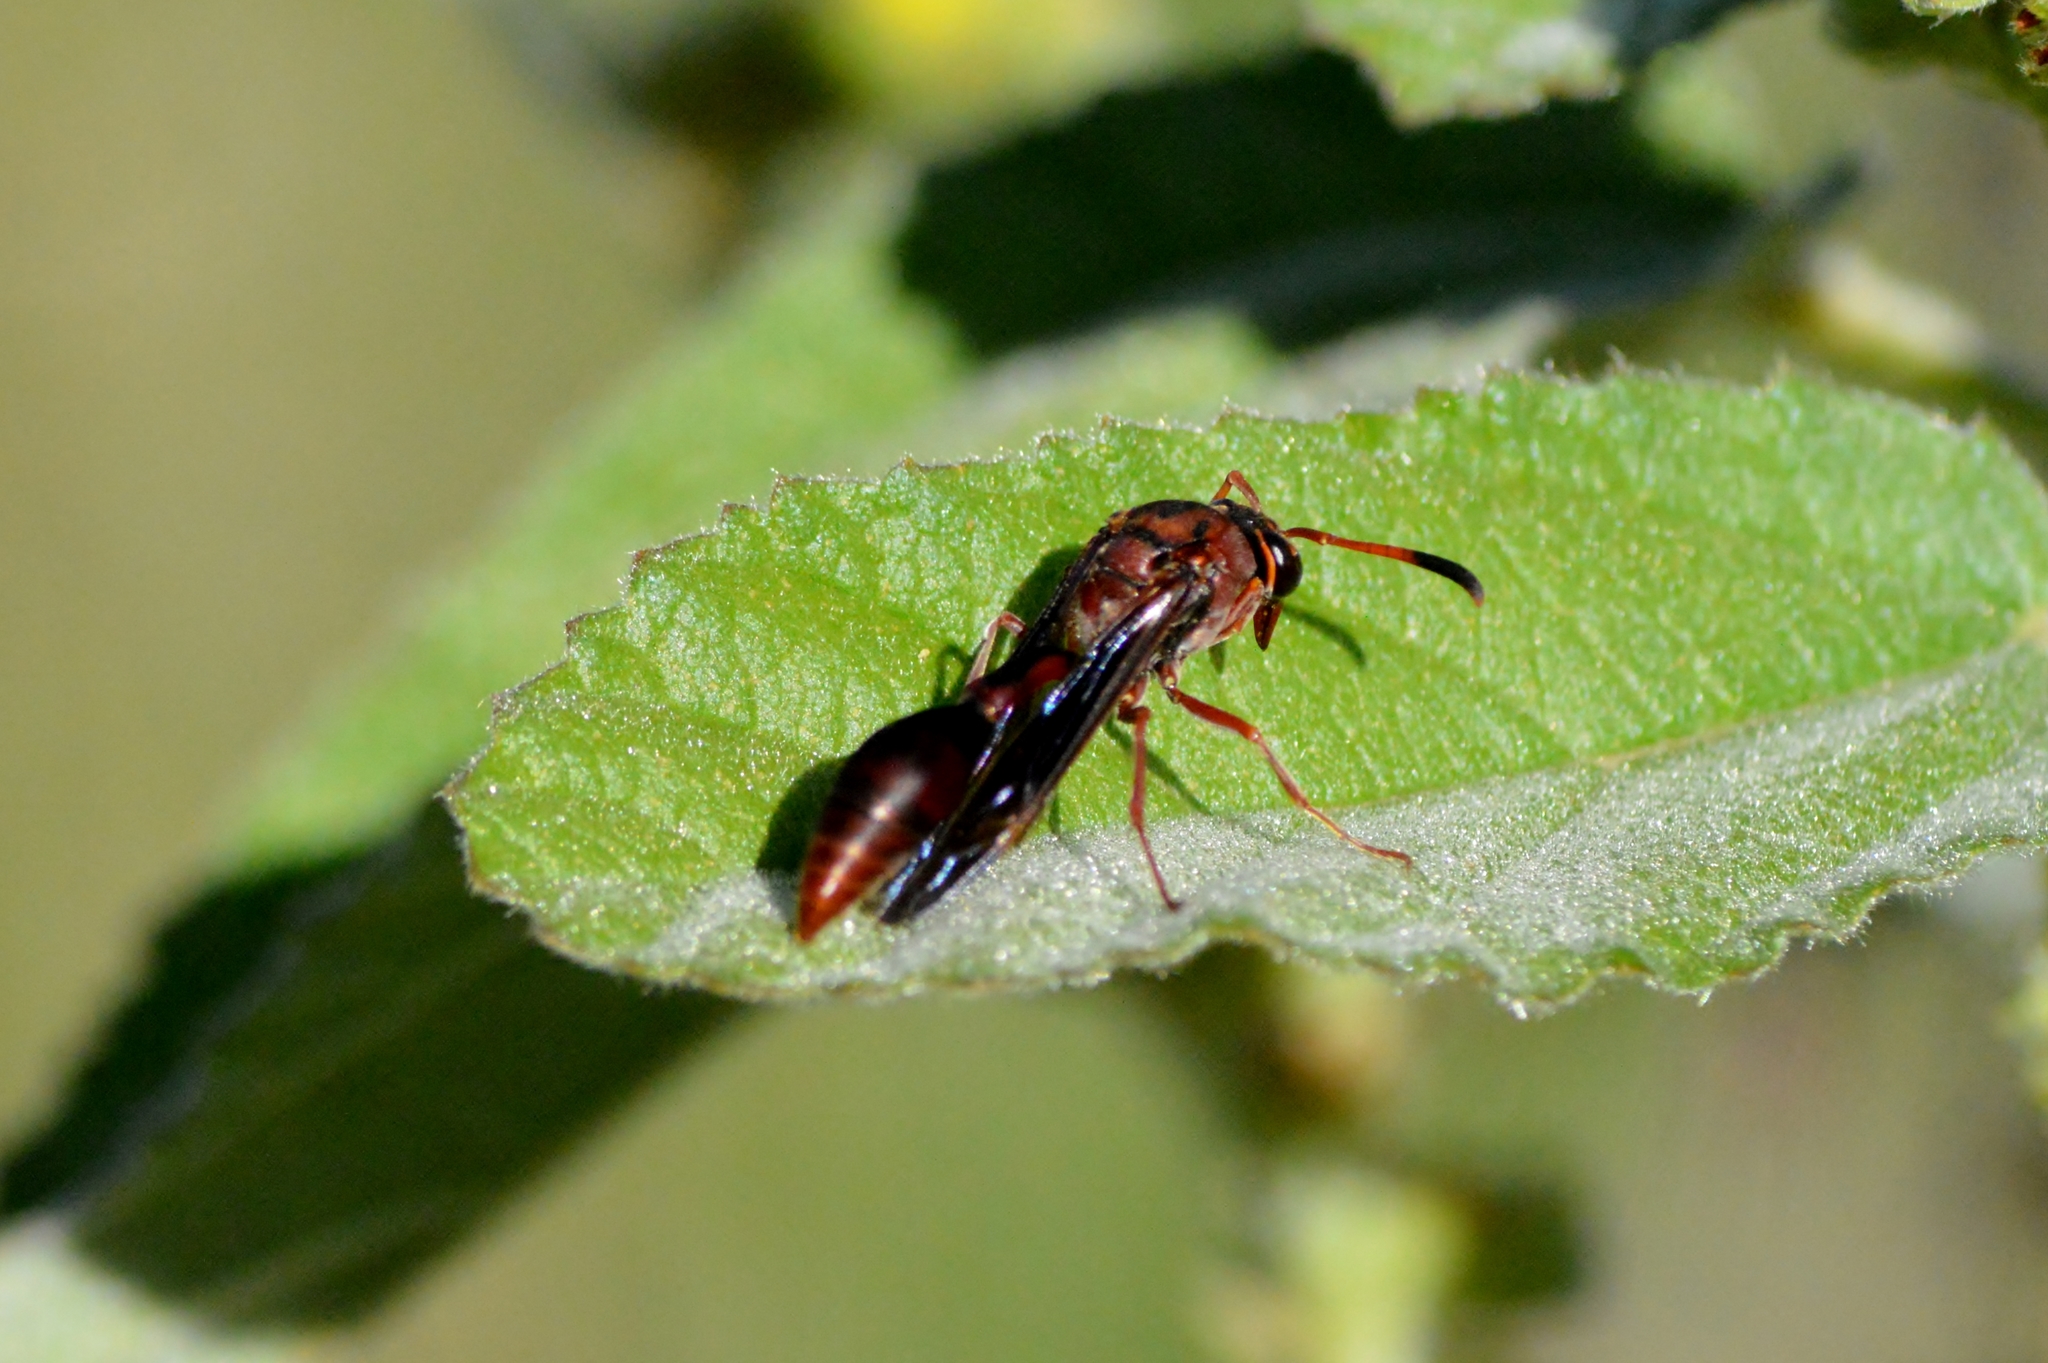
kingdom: Animalia
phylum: Arthropoda
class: Insecta
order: Hymenoptera
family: Eumenidae
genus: Zeta
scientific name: Zeta argillaceum
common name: Potter wasp
